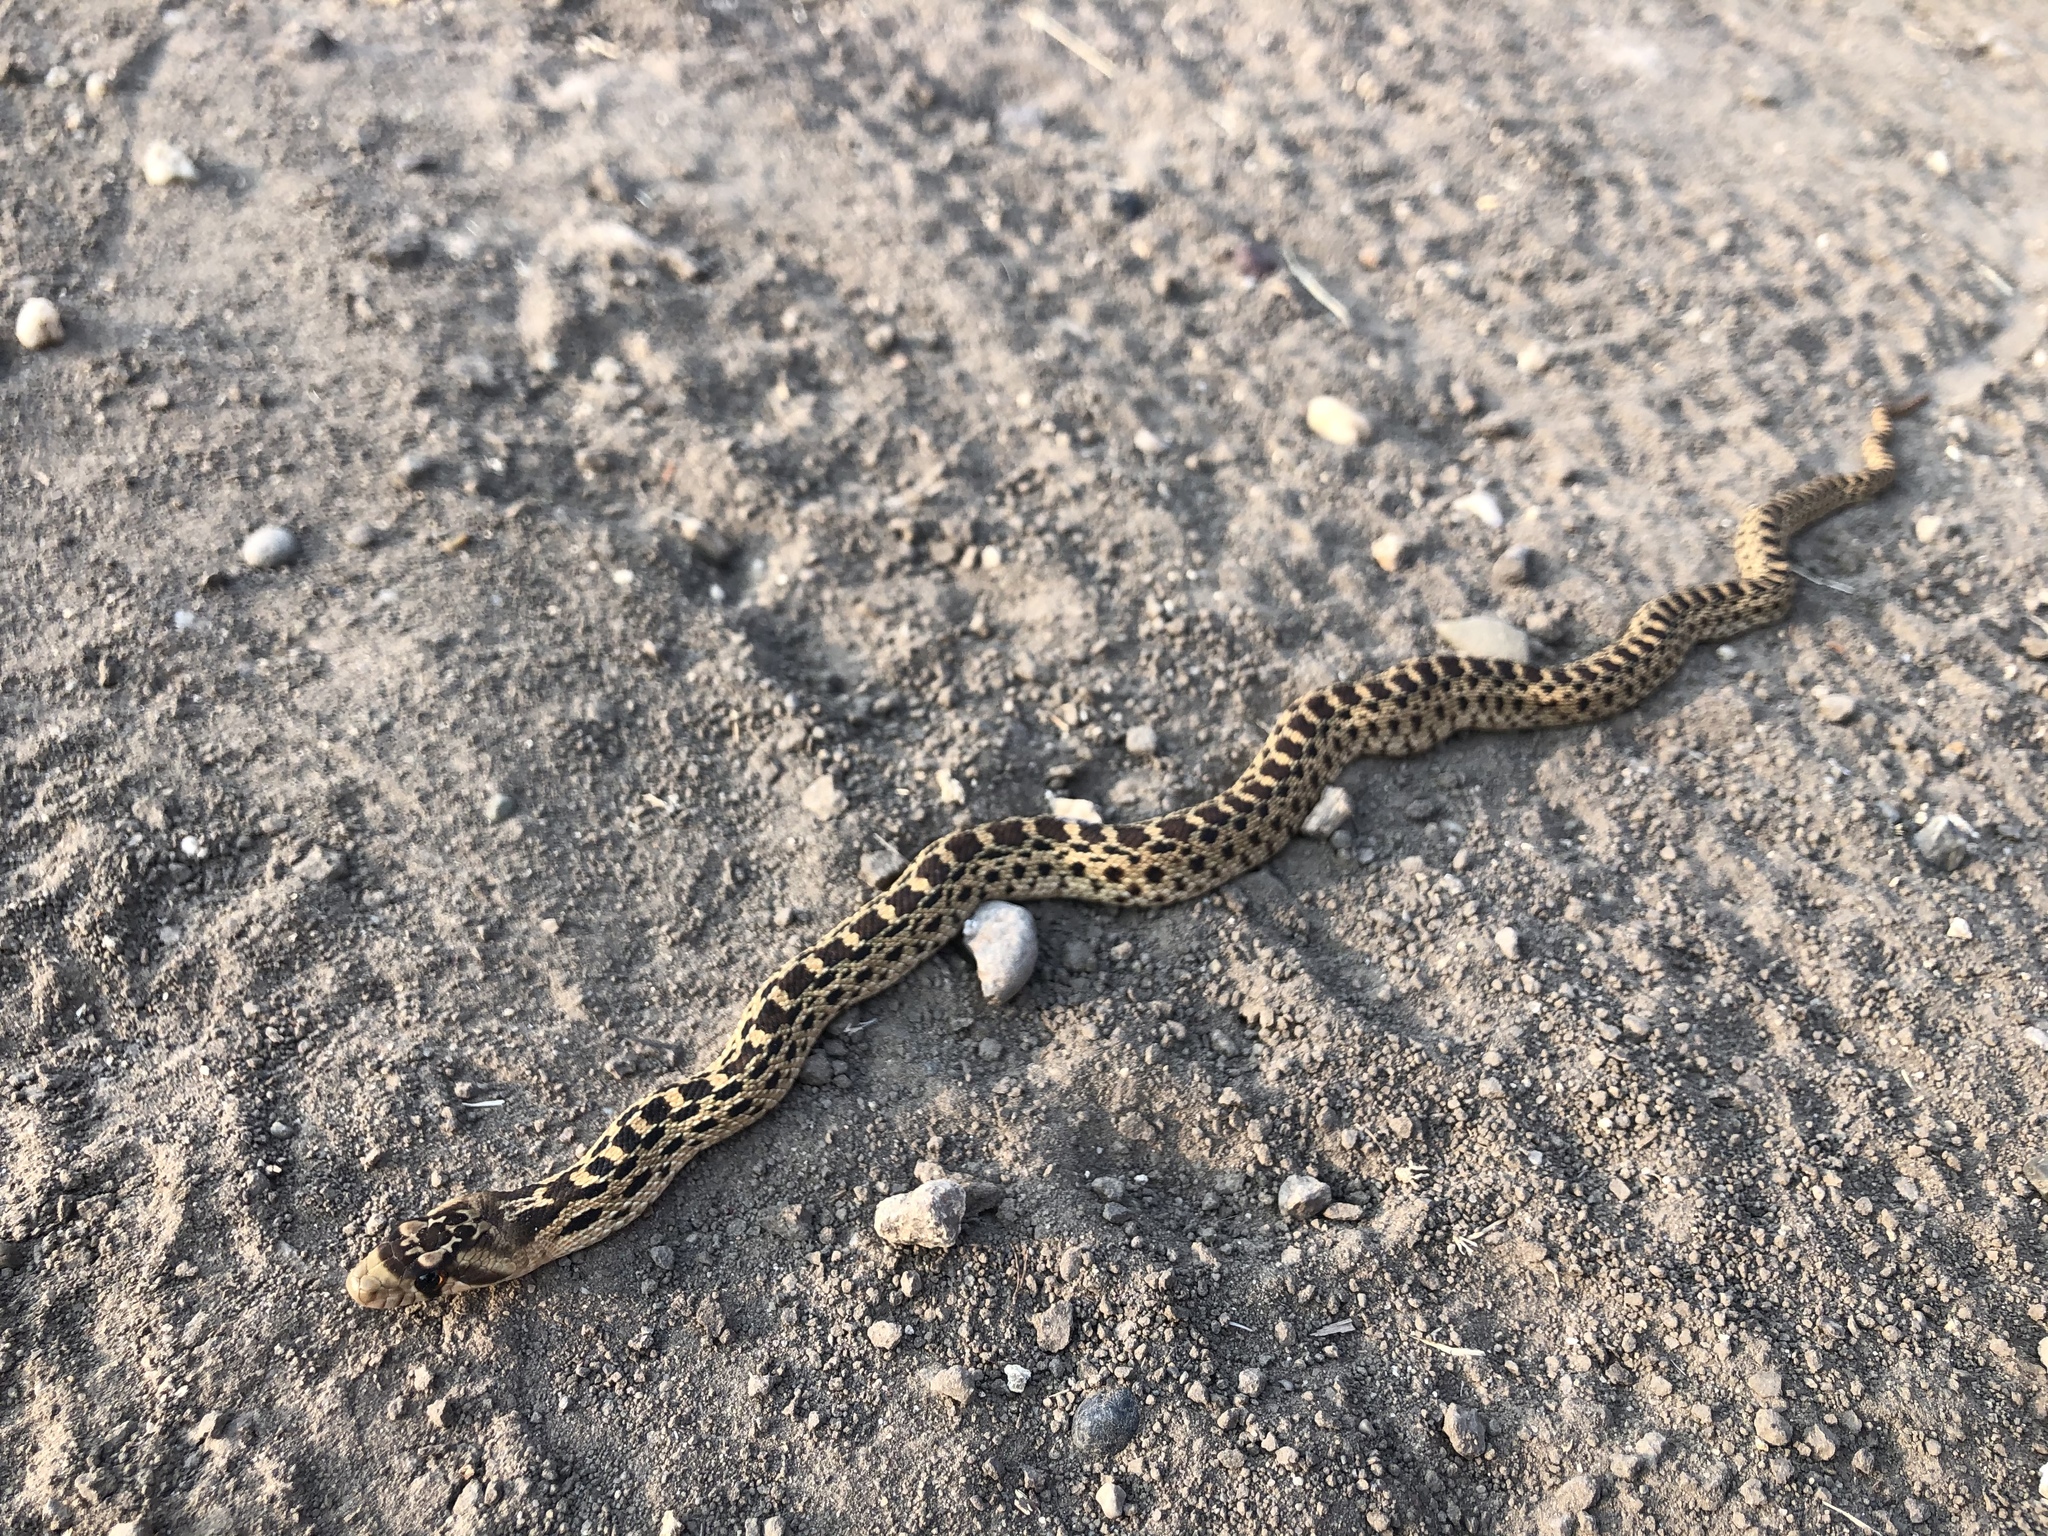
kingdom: Animalia
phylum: Chordata
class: Squamata
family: Colubridae
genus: Pituophis
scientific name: Pituophis catenifer
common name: Gopher snake
